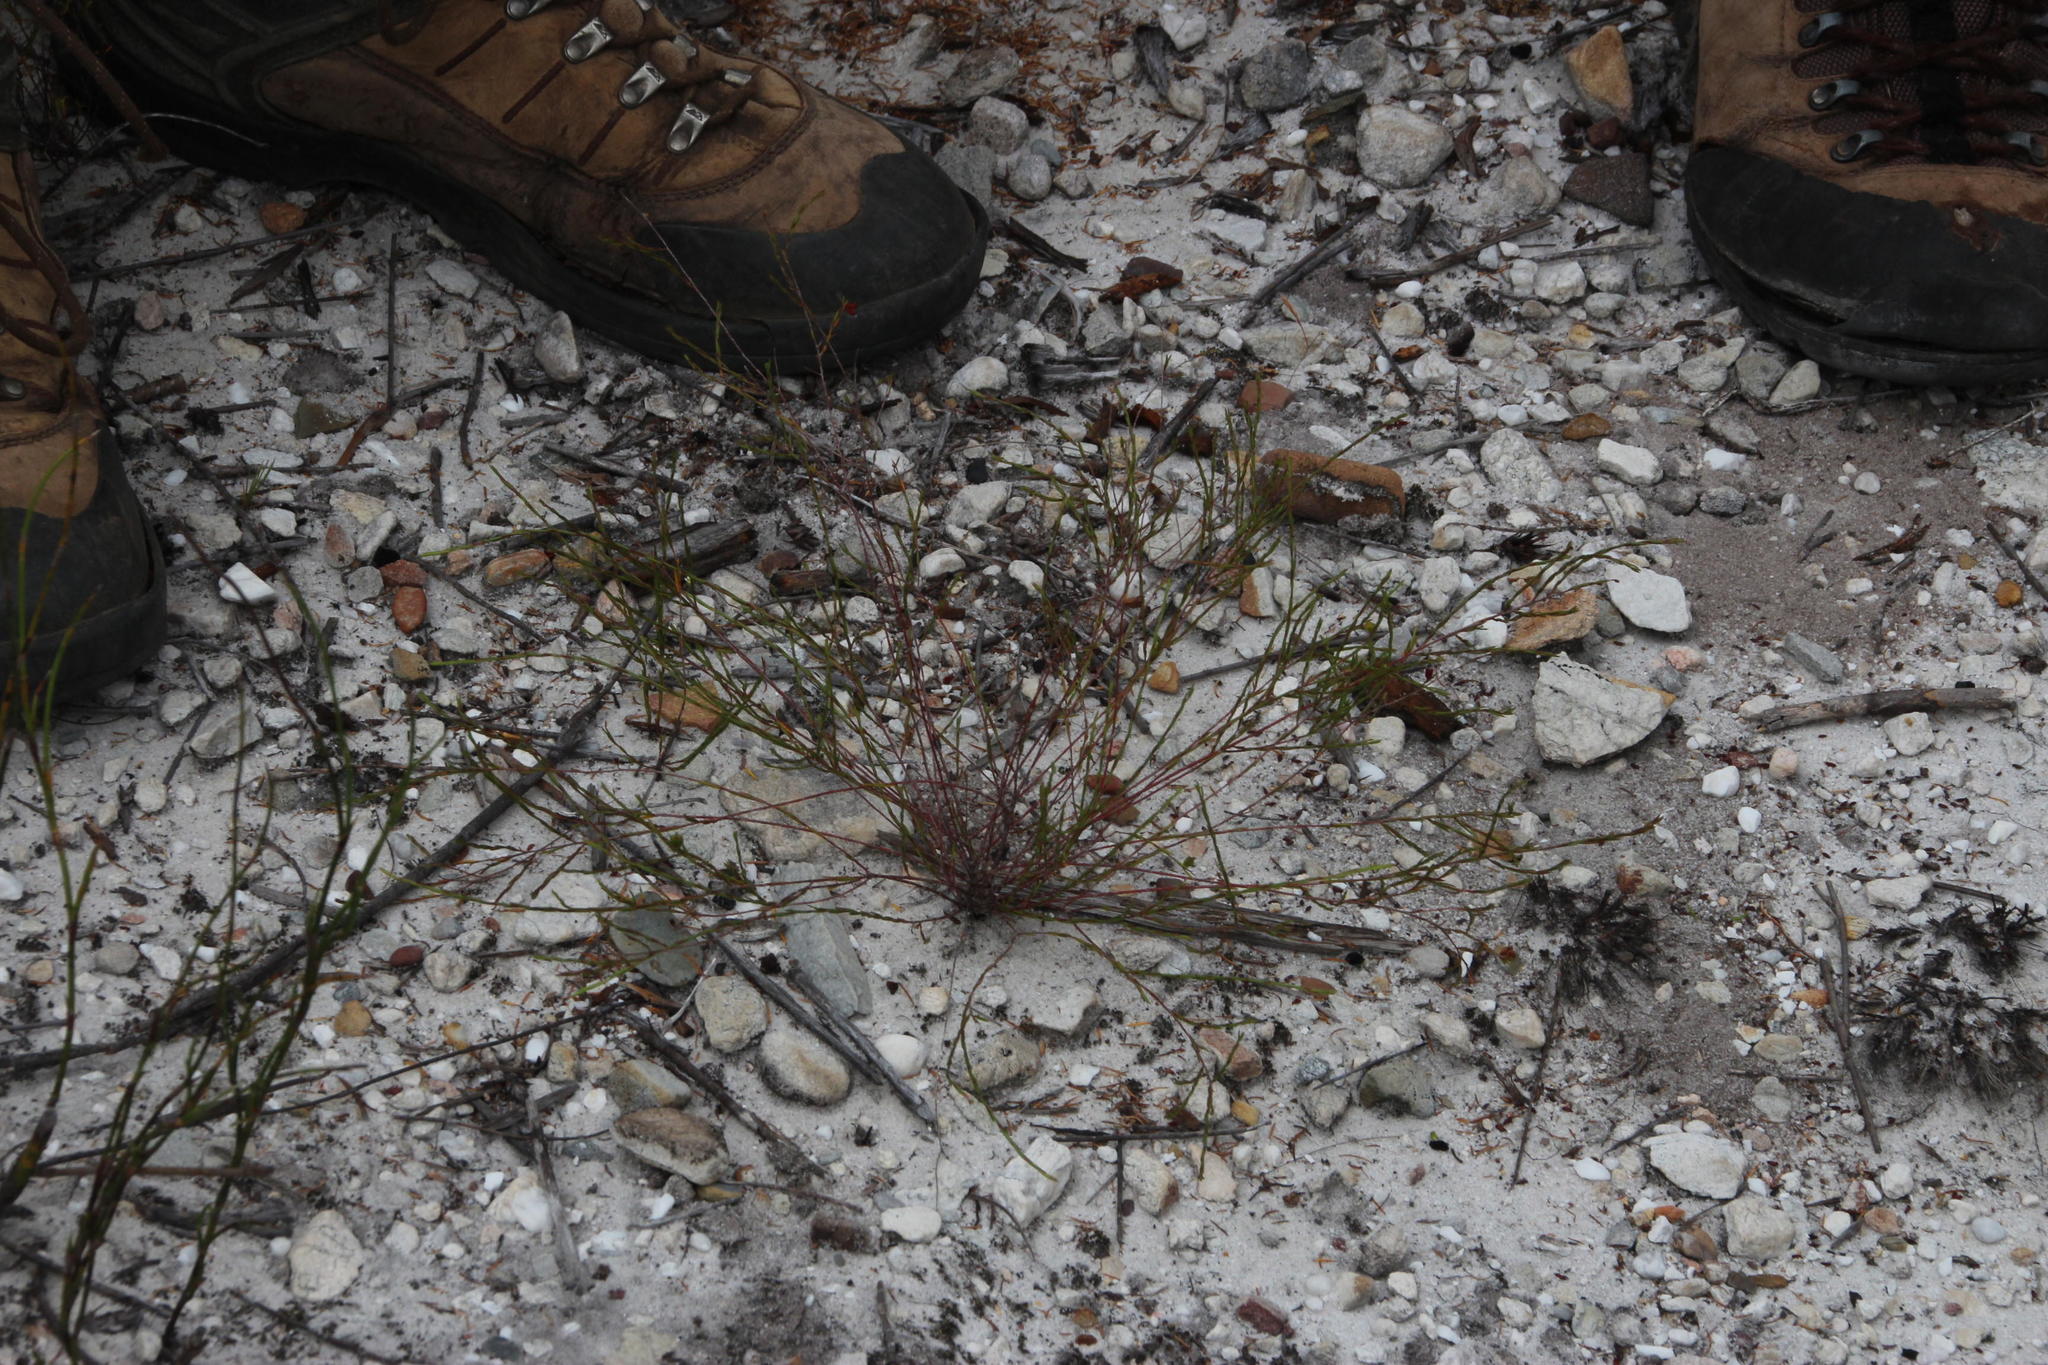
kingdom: Animalia
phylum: Arthropoda
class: Insecta
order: Diptera
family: Bombyliidae
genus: Exoprosopa
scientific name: Exoprosopa heros
